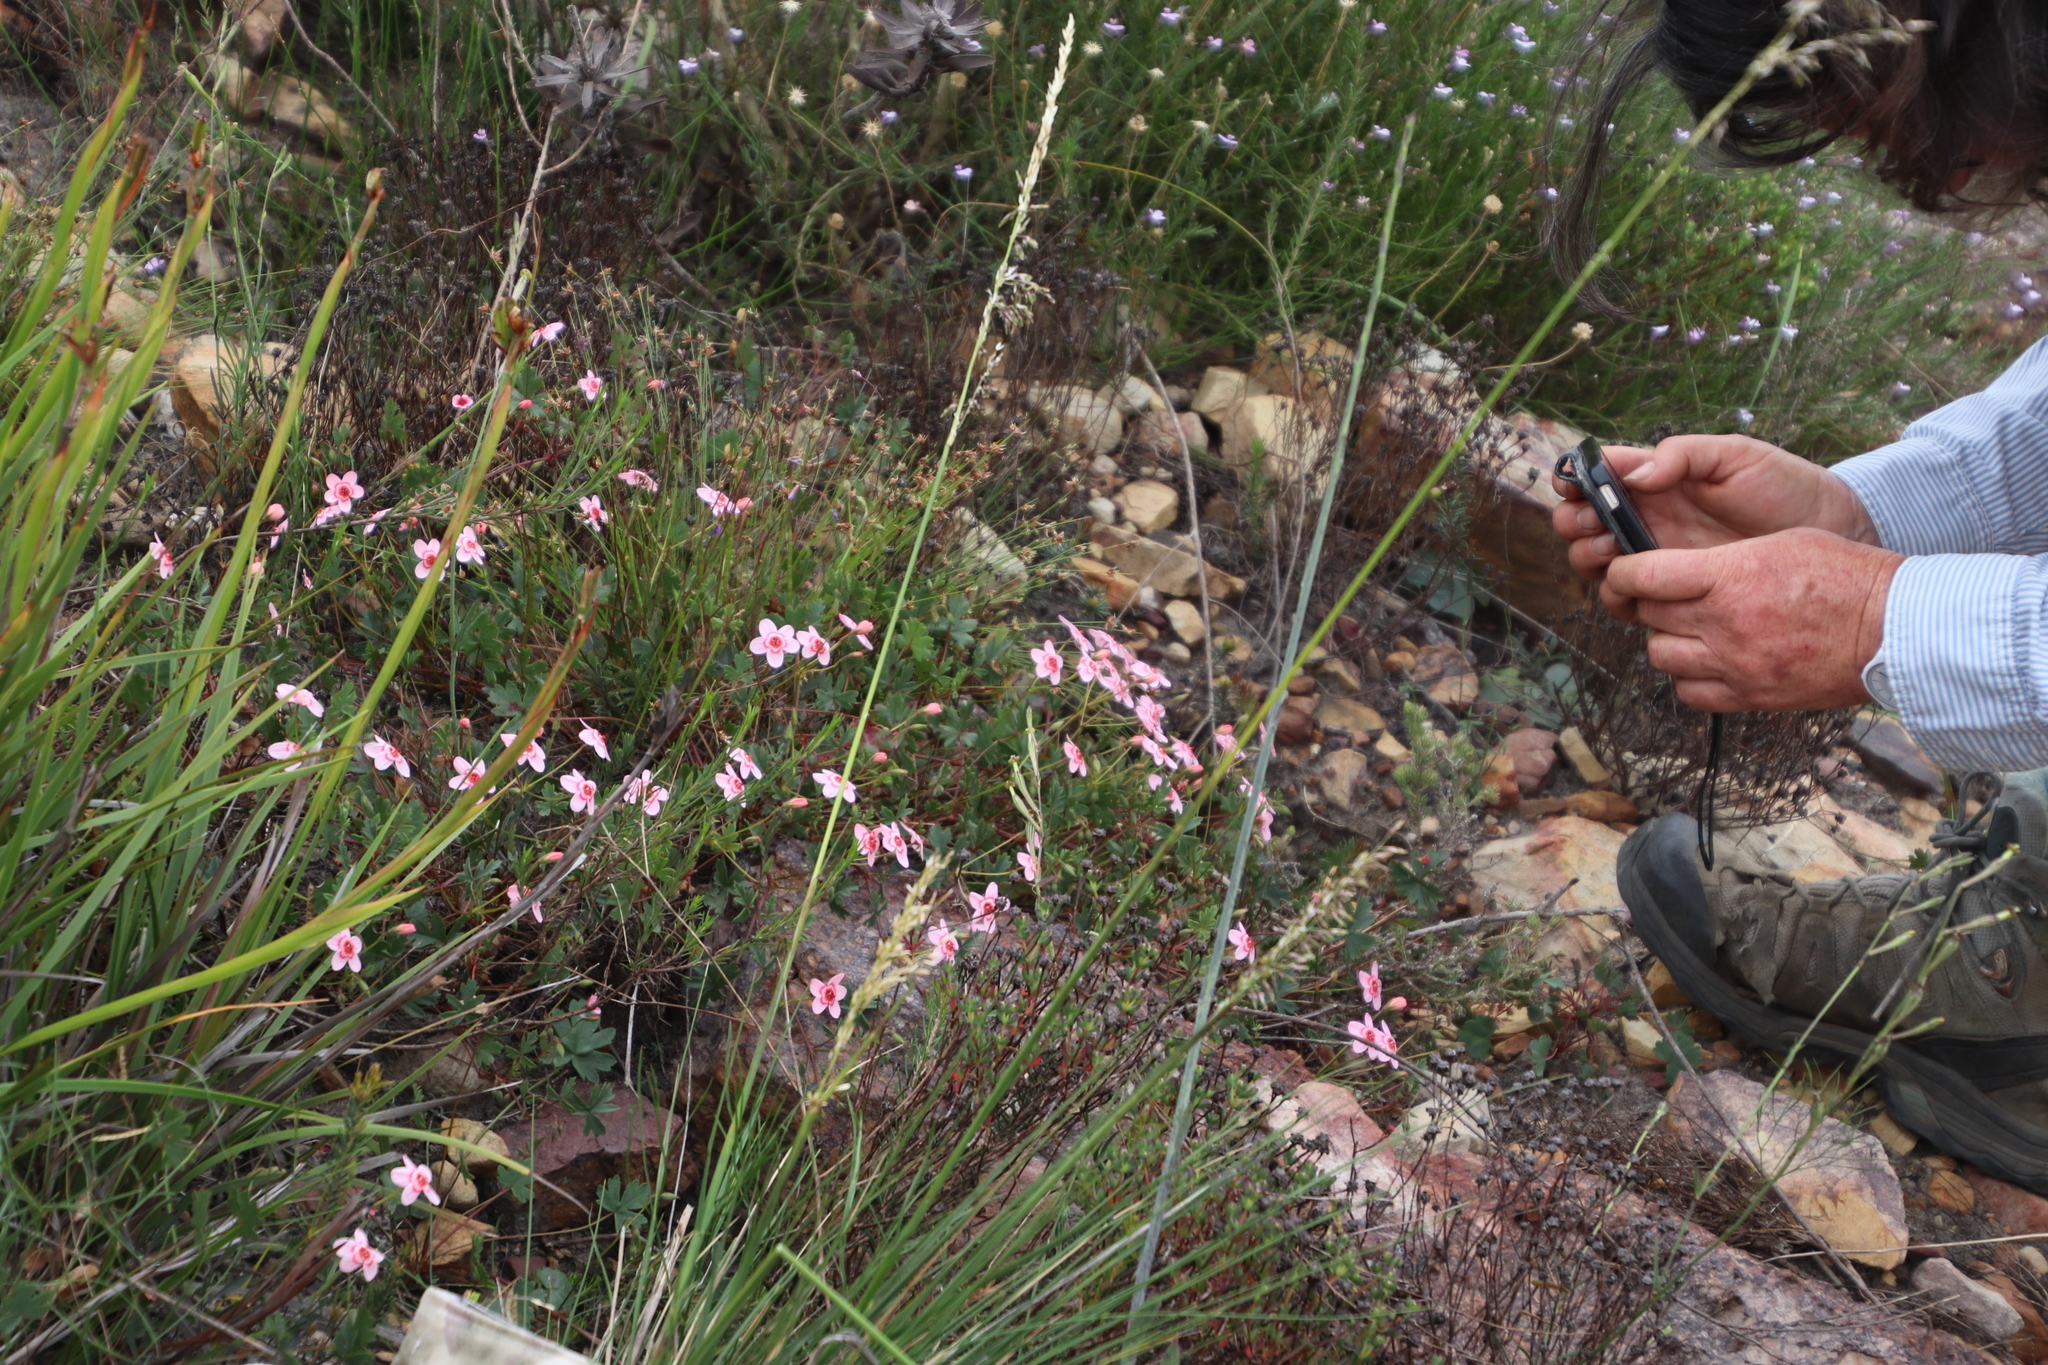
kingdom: Plantae
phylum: Tracheophyta
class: Magnoliopsida
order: Geraniales
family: Geraniaceae
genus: Pelargonium
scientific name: Pelargonium incarnatum
